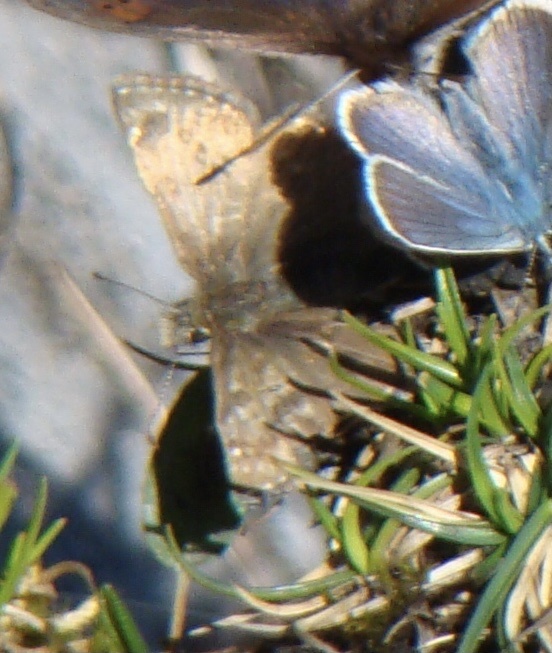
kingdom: Animalia
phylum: Arthropoda
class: Insecta
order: Lepidoptera
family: Hesperiidae
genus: Erynnis
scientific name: Erynnis tages
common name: Dingy skipper
